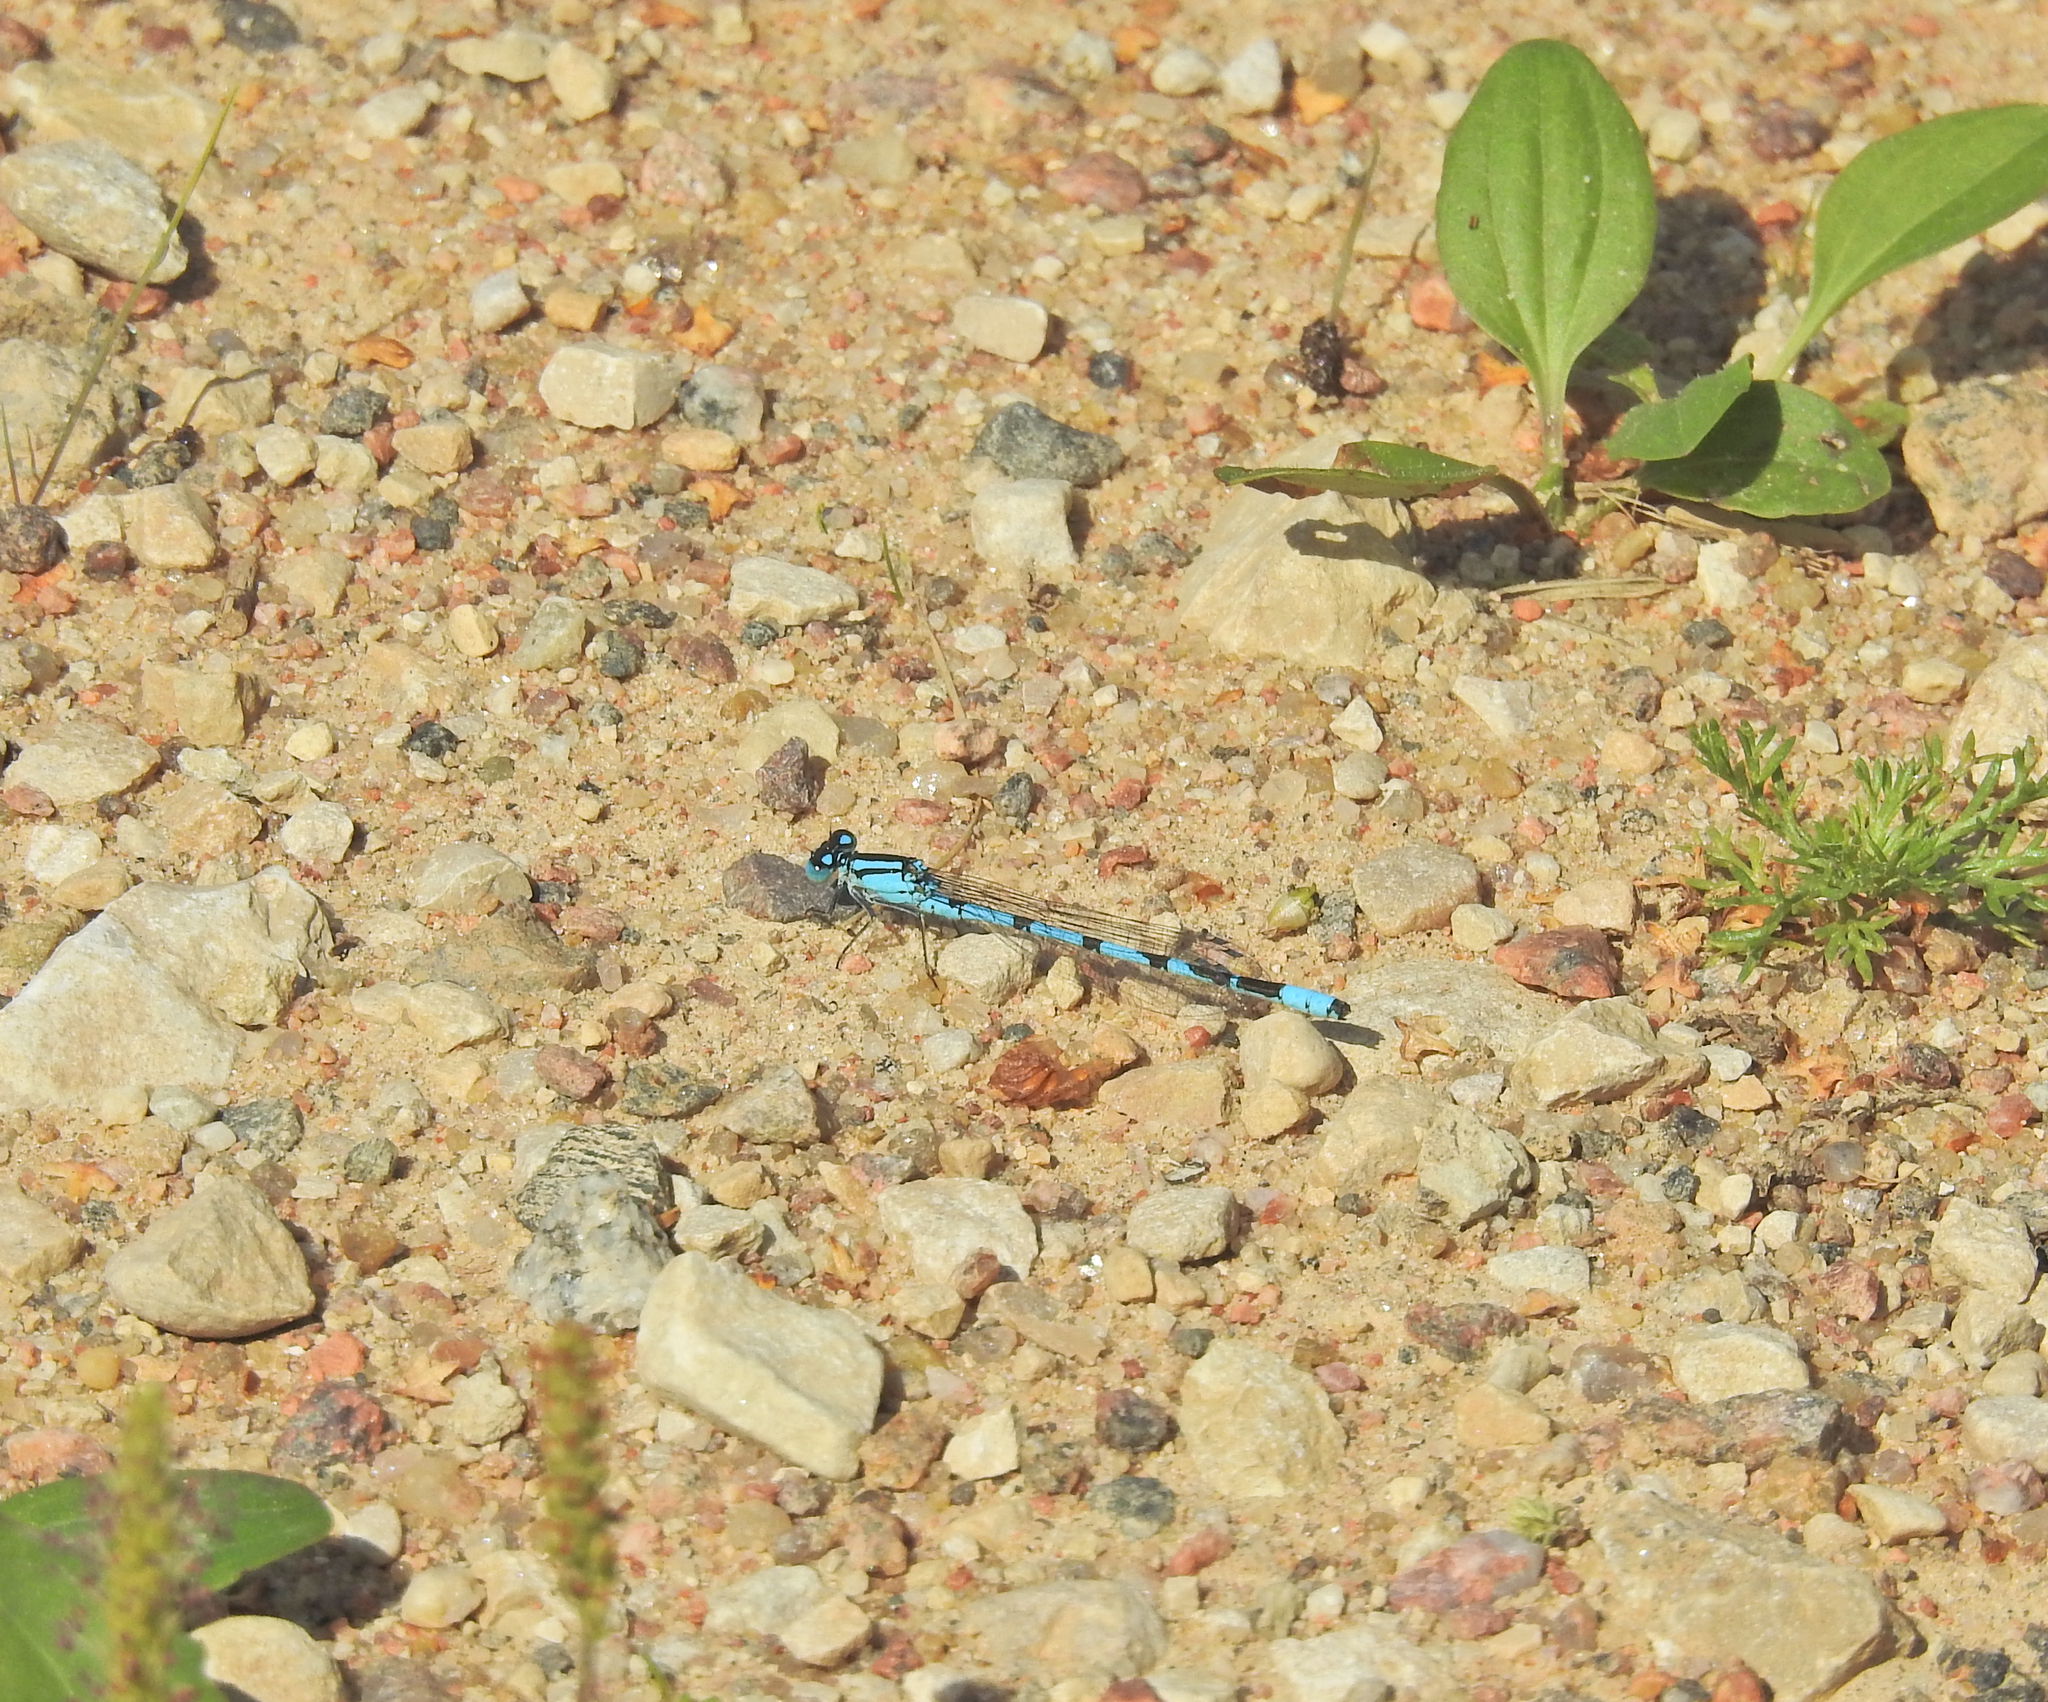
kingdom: Animalia
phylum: Arthropoda
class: Insecta
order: Odonata
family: Coenagrionidae
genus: Enallagma
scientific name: Enallagma cyathigerum
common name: Common blue damselfly
